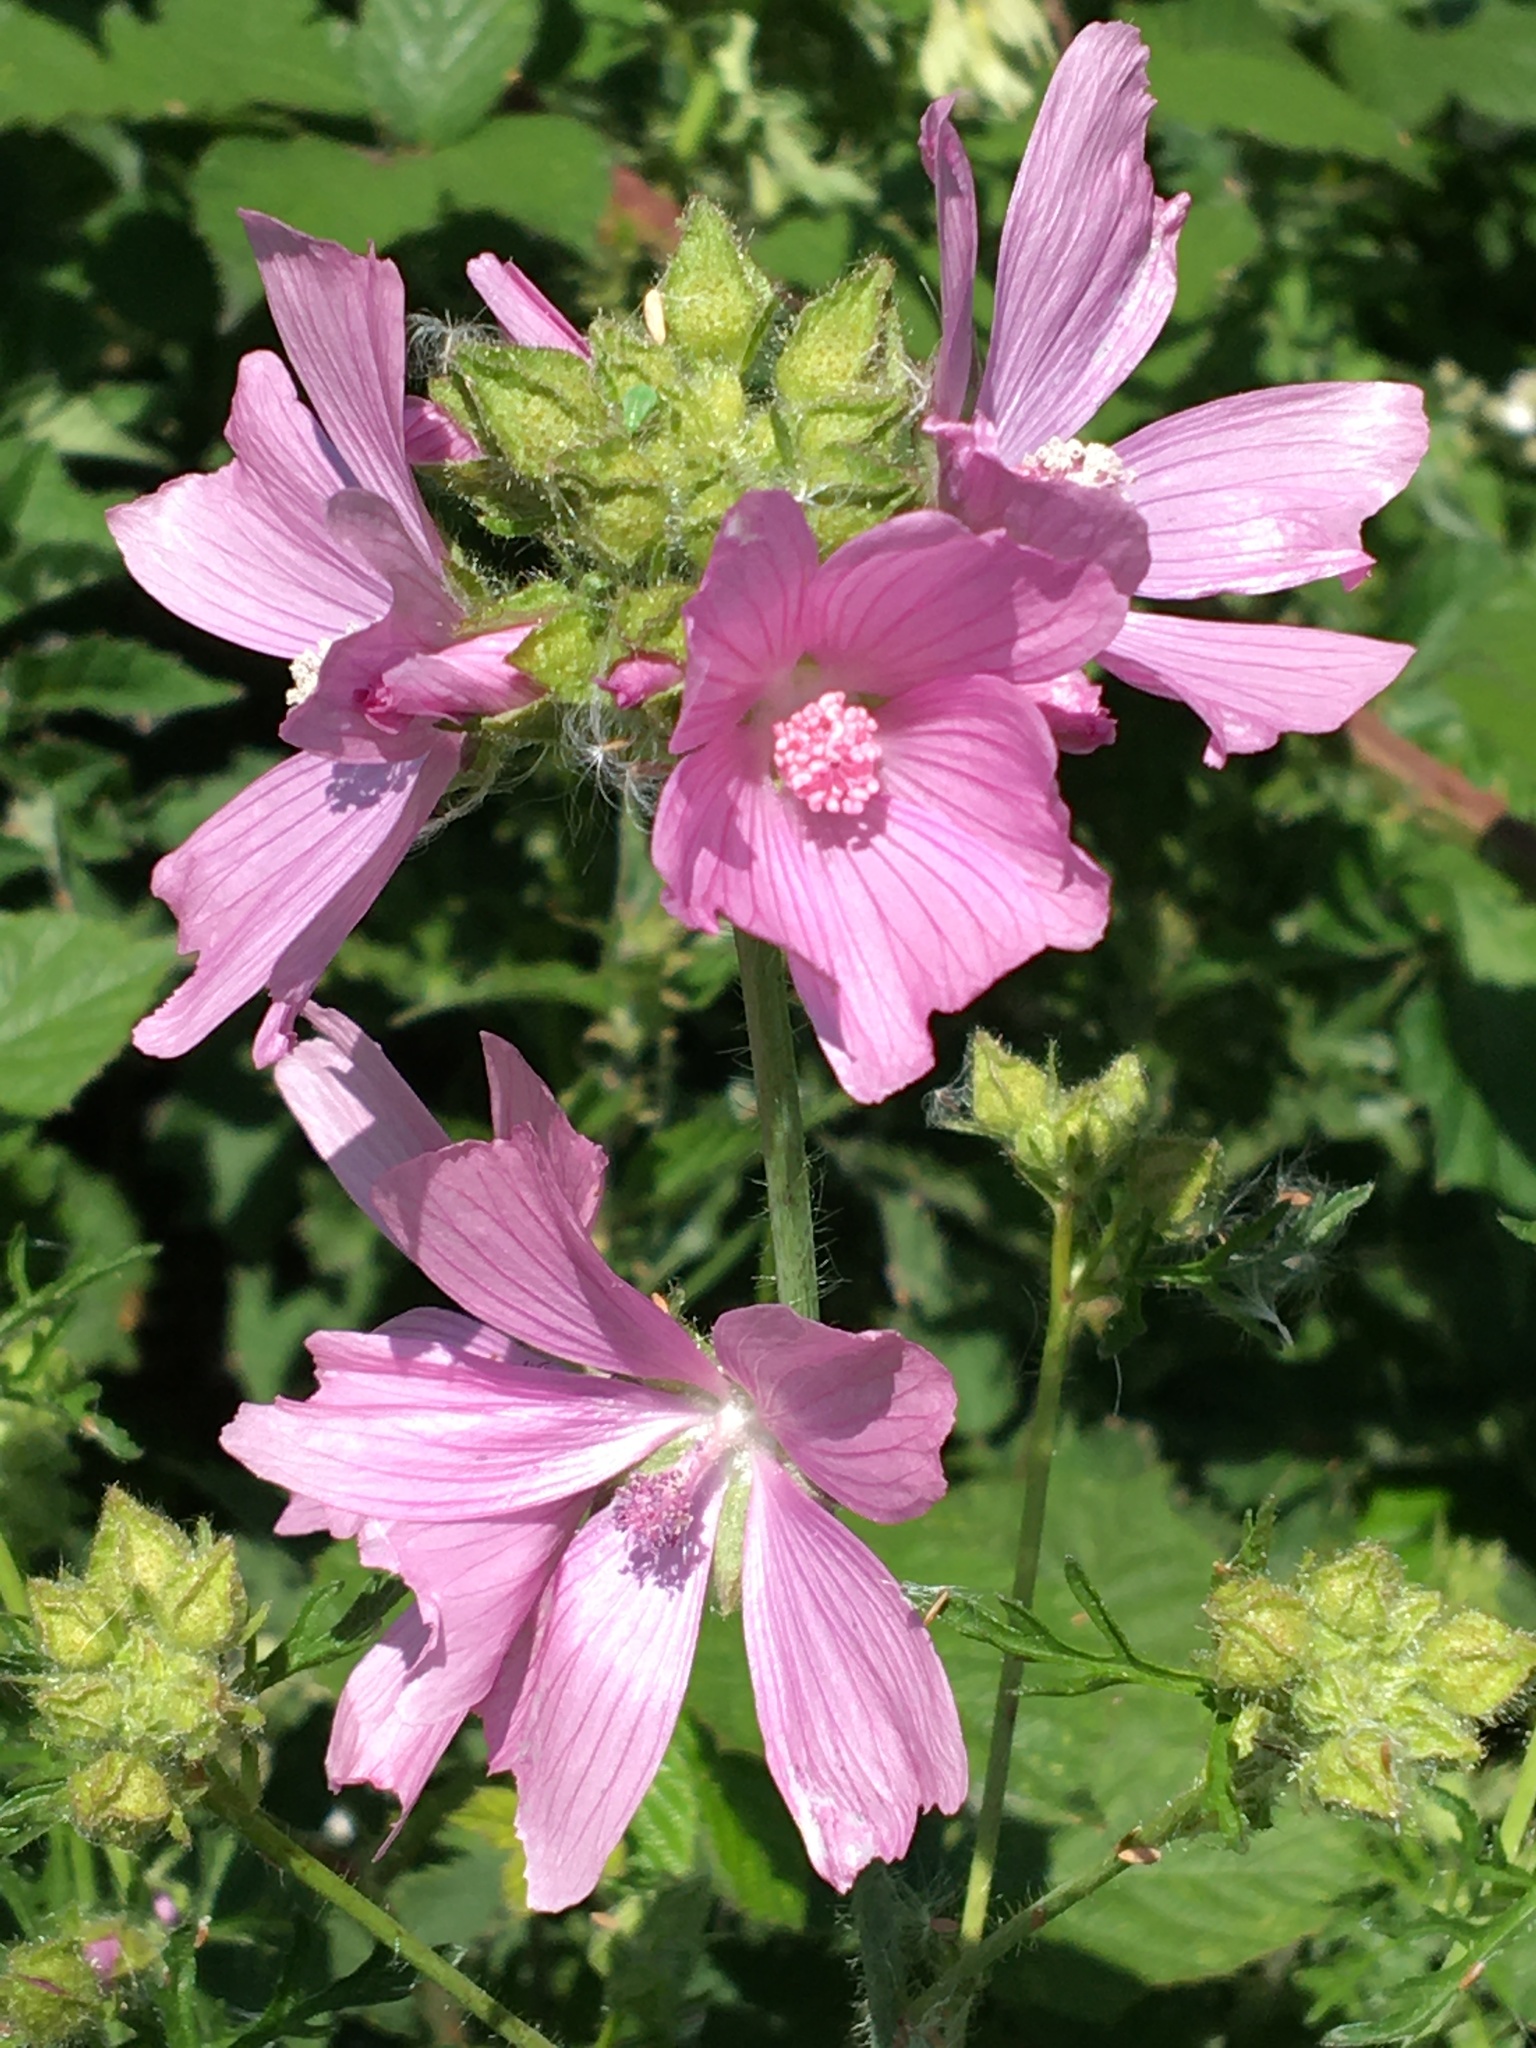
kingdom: Plantae
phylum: Tracheophyta
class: Magnoliopsida
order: Malvales
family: Malvaceae
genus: Malva
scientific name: Malva moschata
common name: Musk mallow
